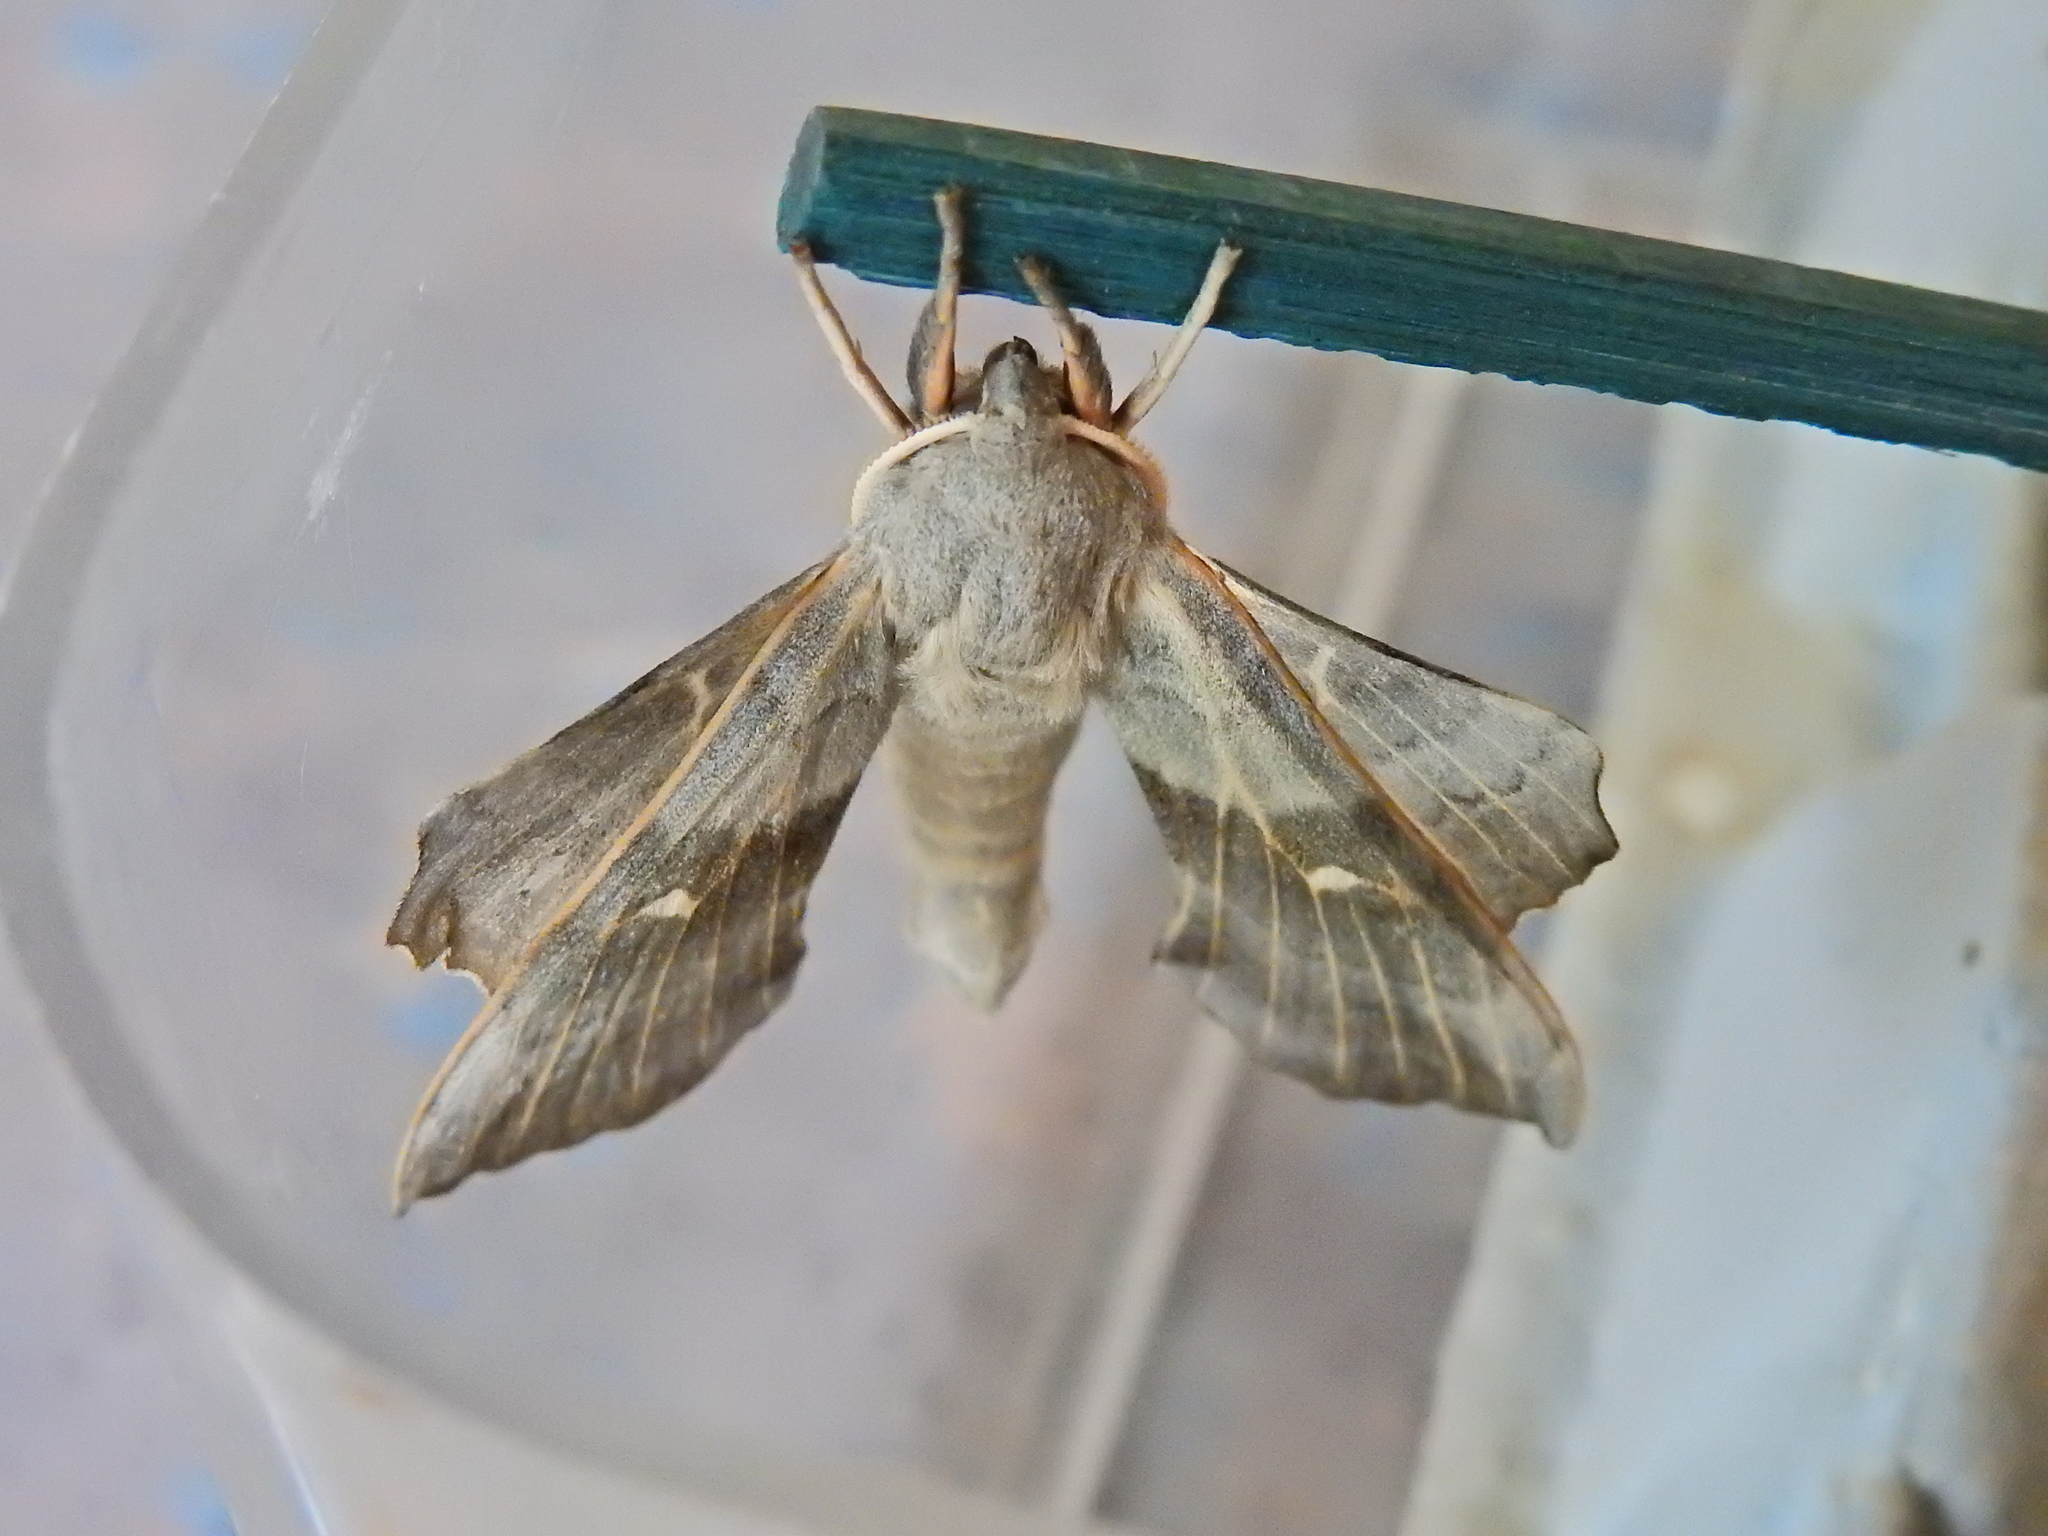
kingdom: Animalia
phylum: Arthropoda
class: Insecta
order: Lepidoptera
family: Sphingidae
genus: Laothoe
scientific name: Laothoe populi
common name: Poplar hawk-moth
